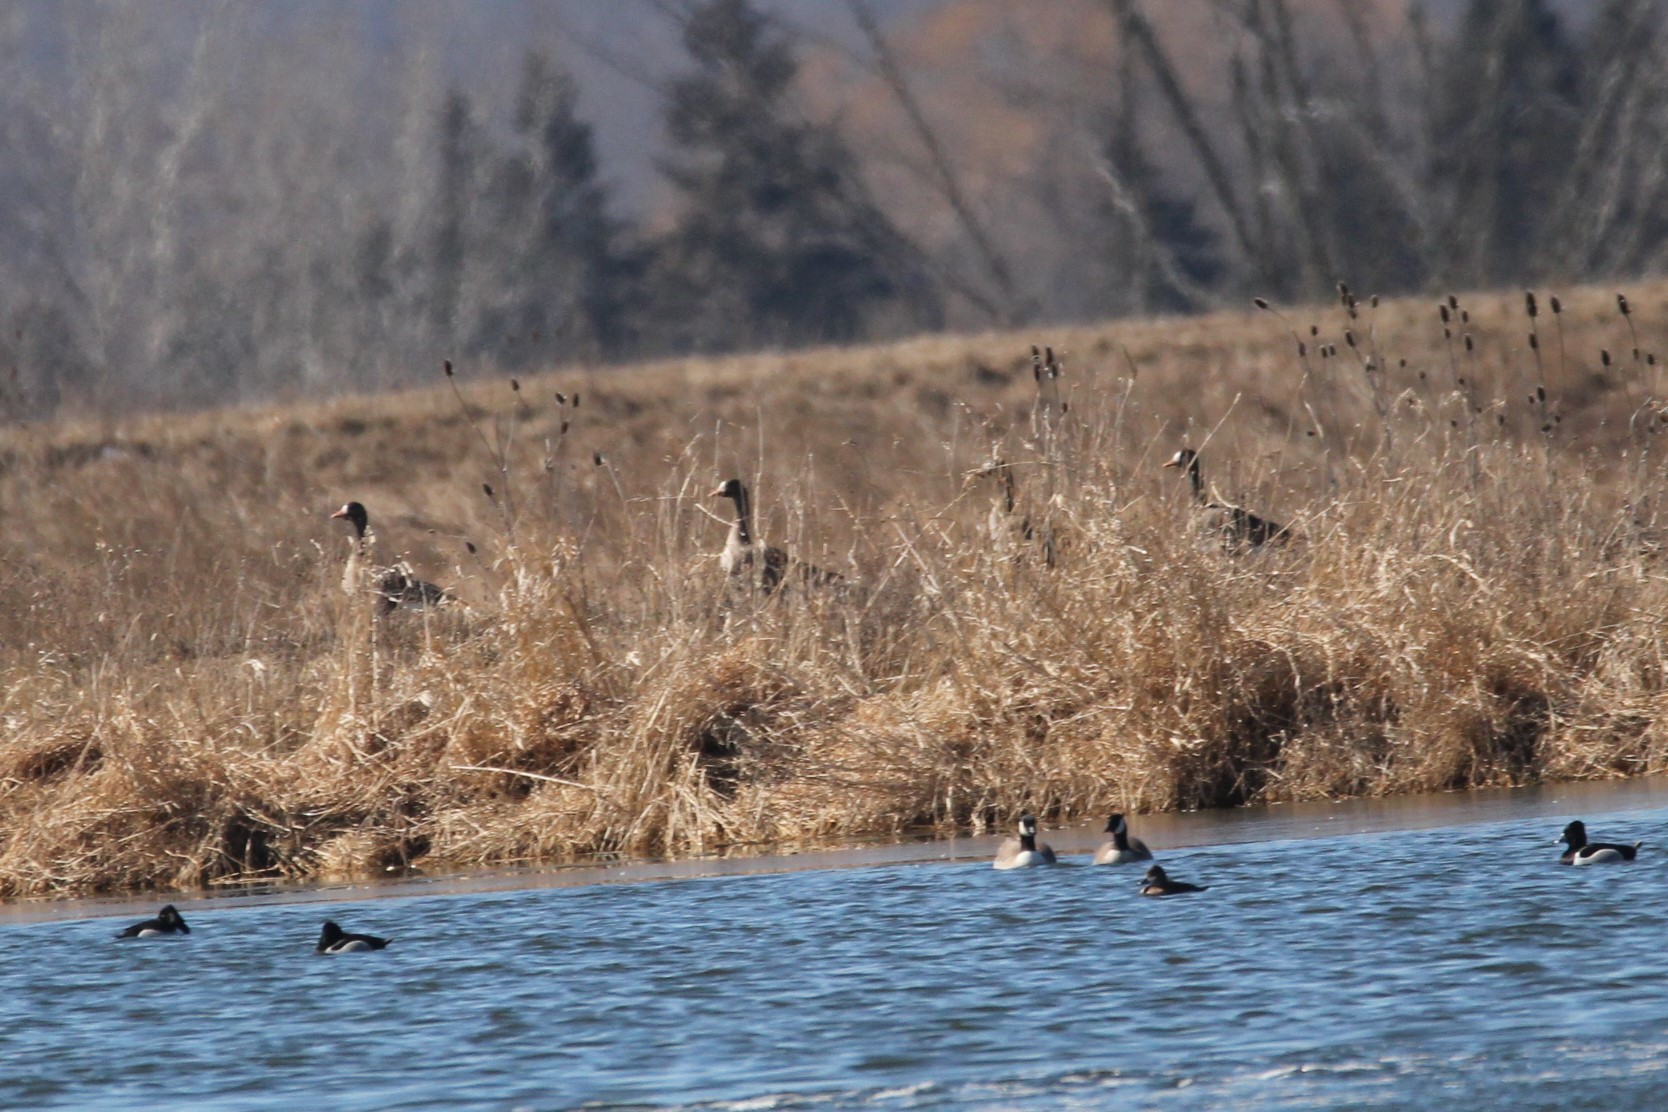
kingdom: Animalia
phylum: Chordata
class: Aves
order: Anseriformes
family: Anatidae
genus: Anser
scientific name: Anser albifrons
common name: Greater white-fronted goose
